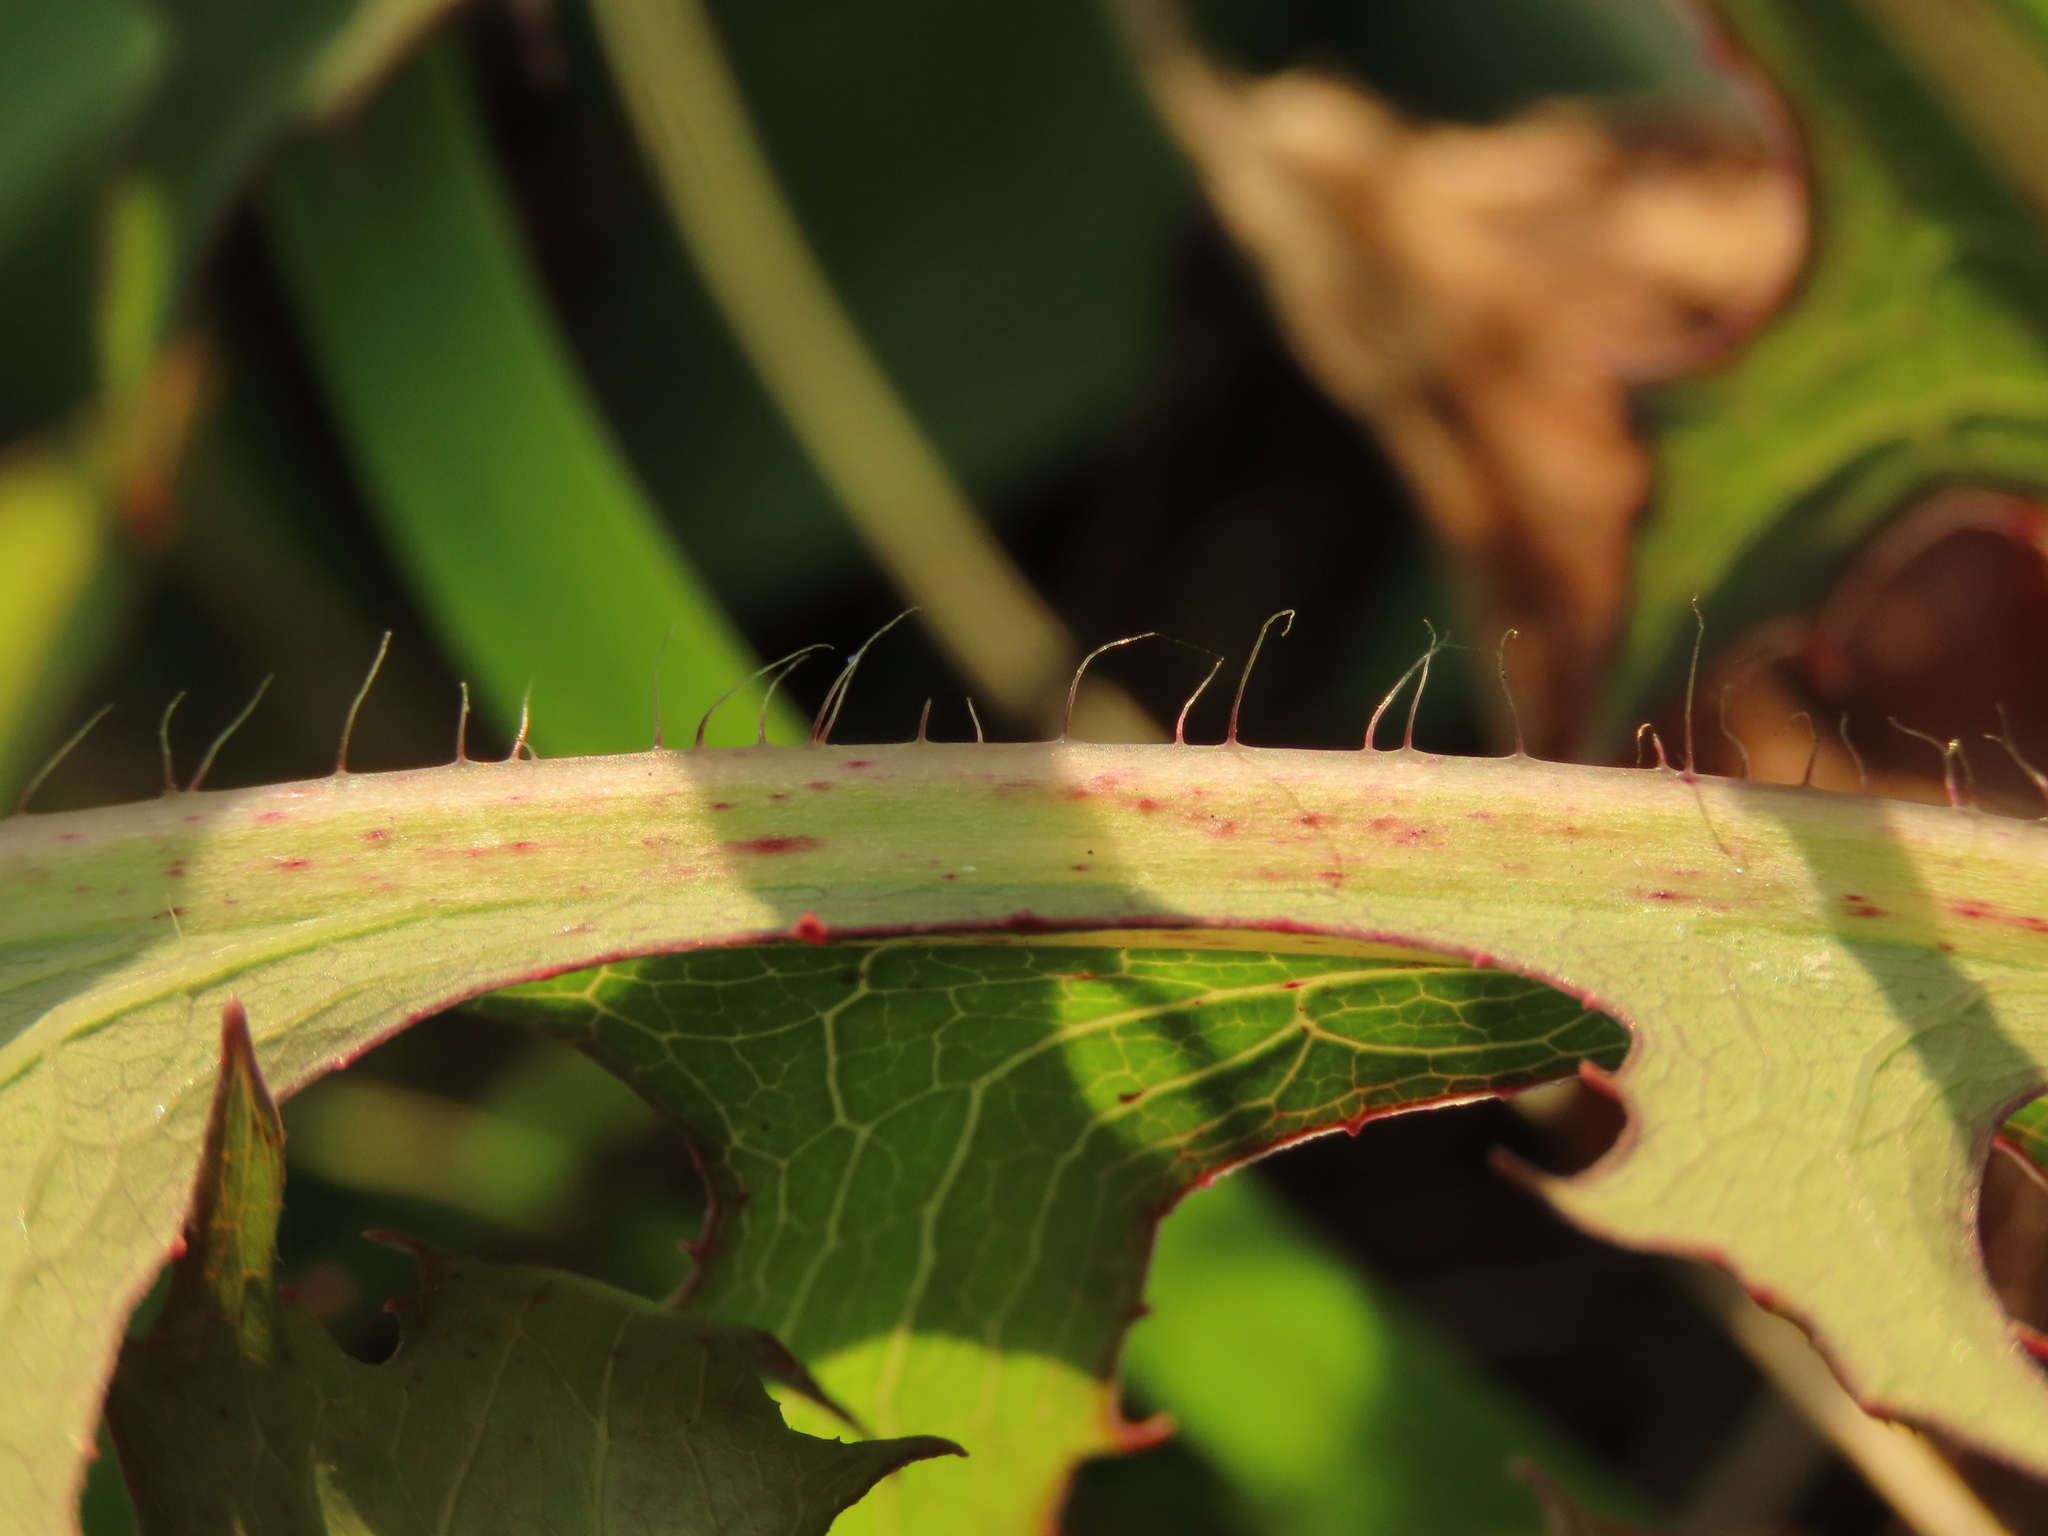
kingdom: Plantae
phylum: Tracheophyta
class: Magnoliopsida
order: Asterales
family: Asteraceae
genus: Lactuca
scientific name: Lactuca indica
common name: Wild lettuce
